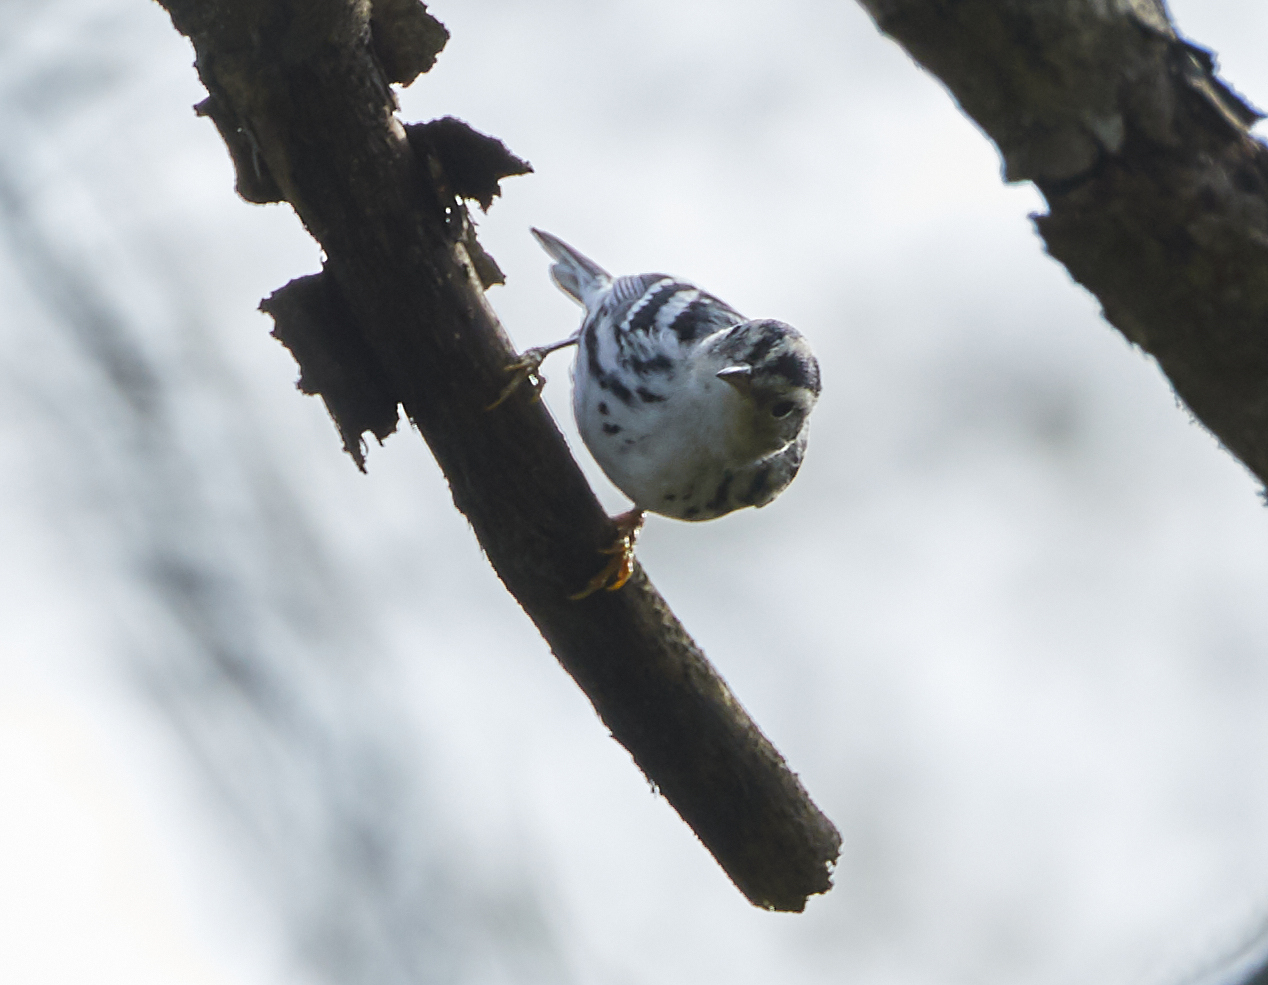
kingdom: Animalia
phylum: Chordata
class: Aves
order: Passeriformes
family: Parulidae
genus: Mniotilta
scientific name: Mniotilta varia
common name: Black-and-white warbler
